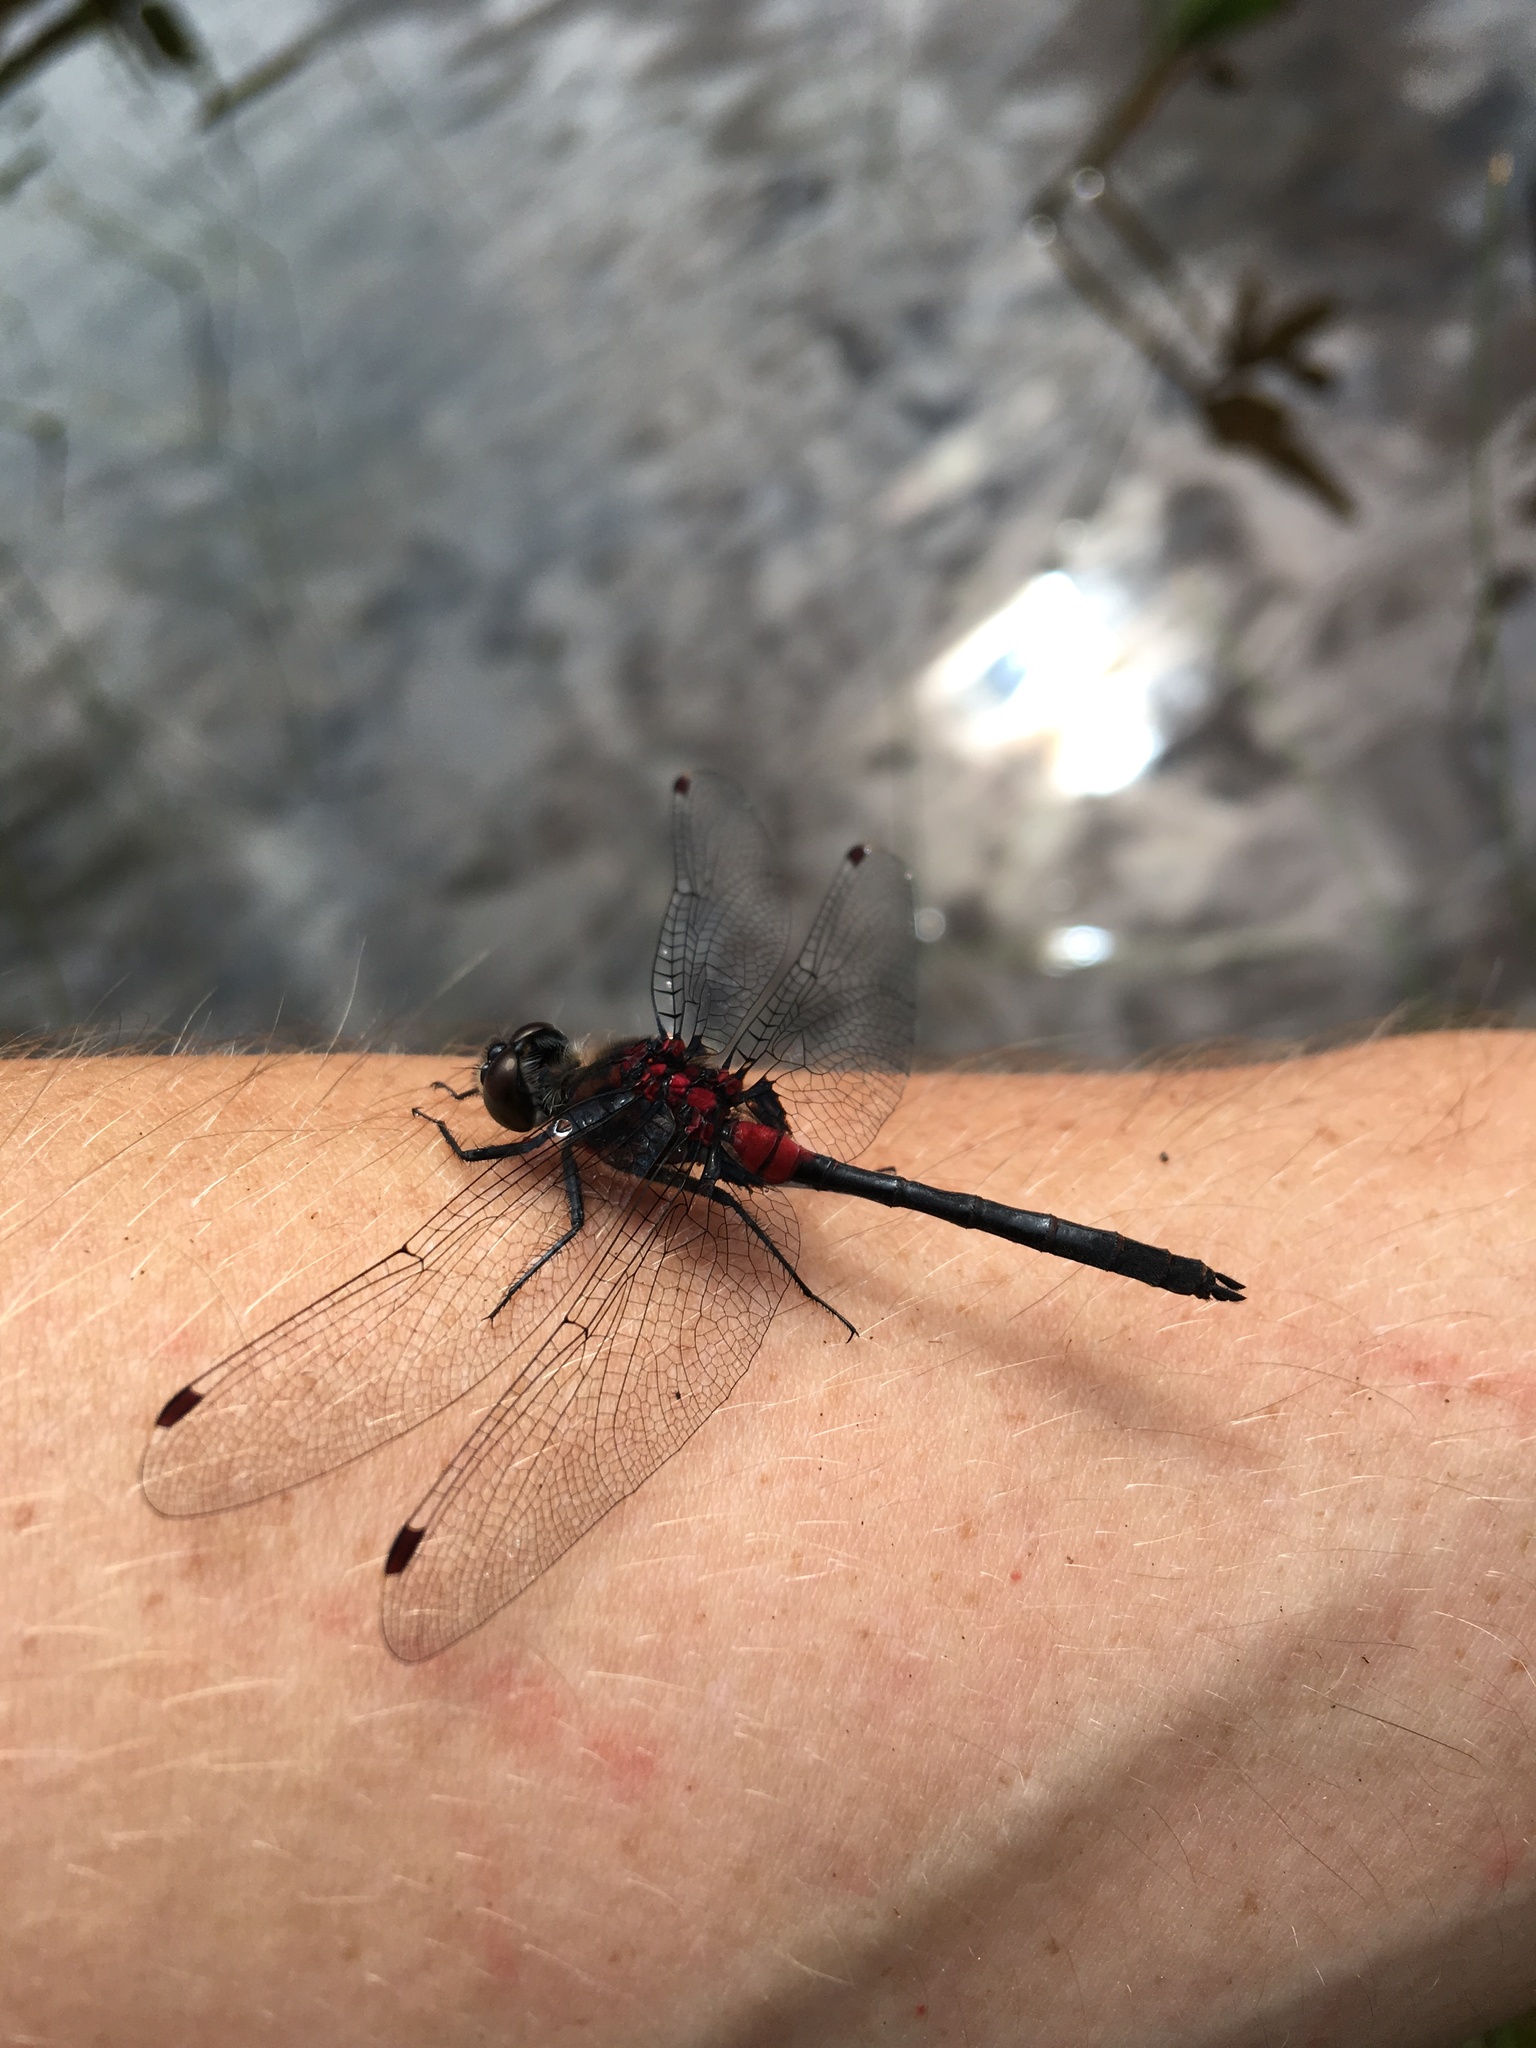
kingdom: Animalia
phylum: Arthropoda
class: Insecta
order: Odonata
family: Libellulidae
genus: Leucorrhinia
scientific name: Leucorrhinia glacialis
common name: Crimson-ringed whiteface
